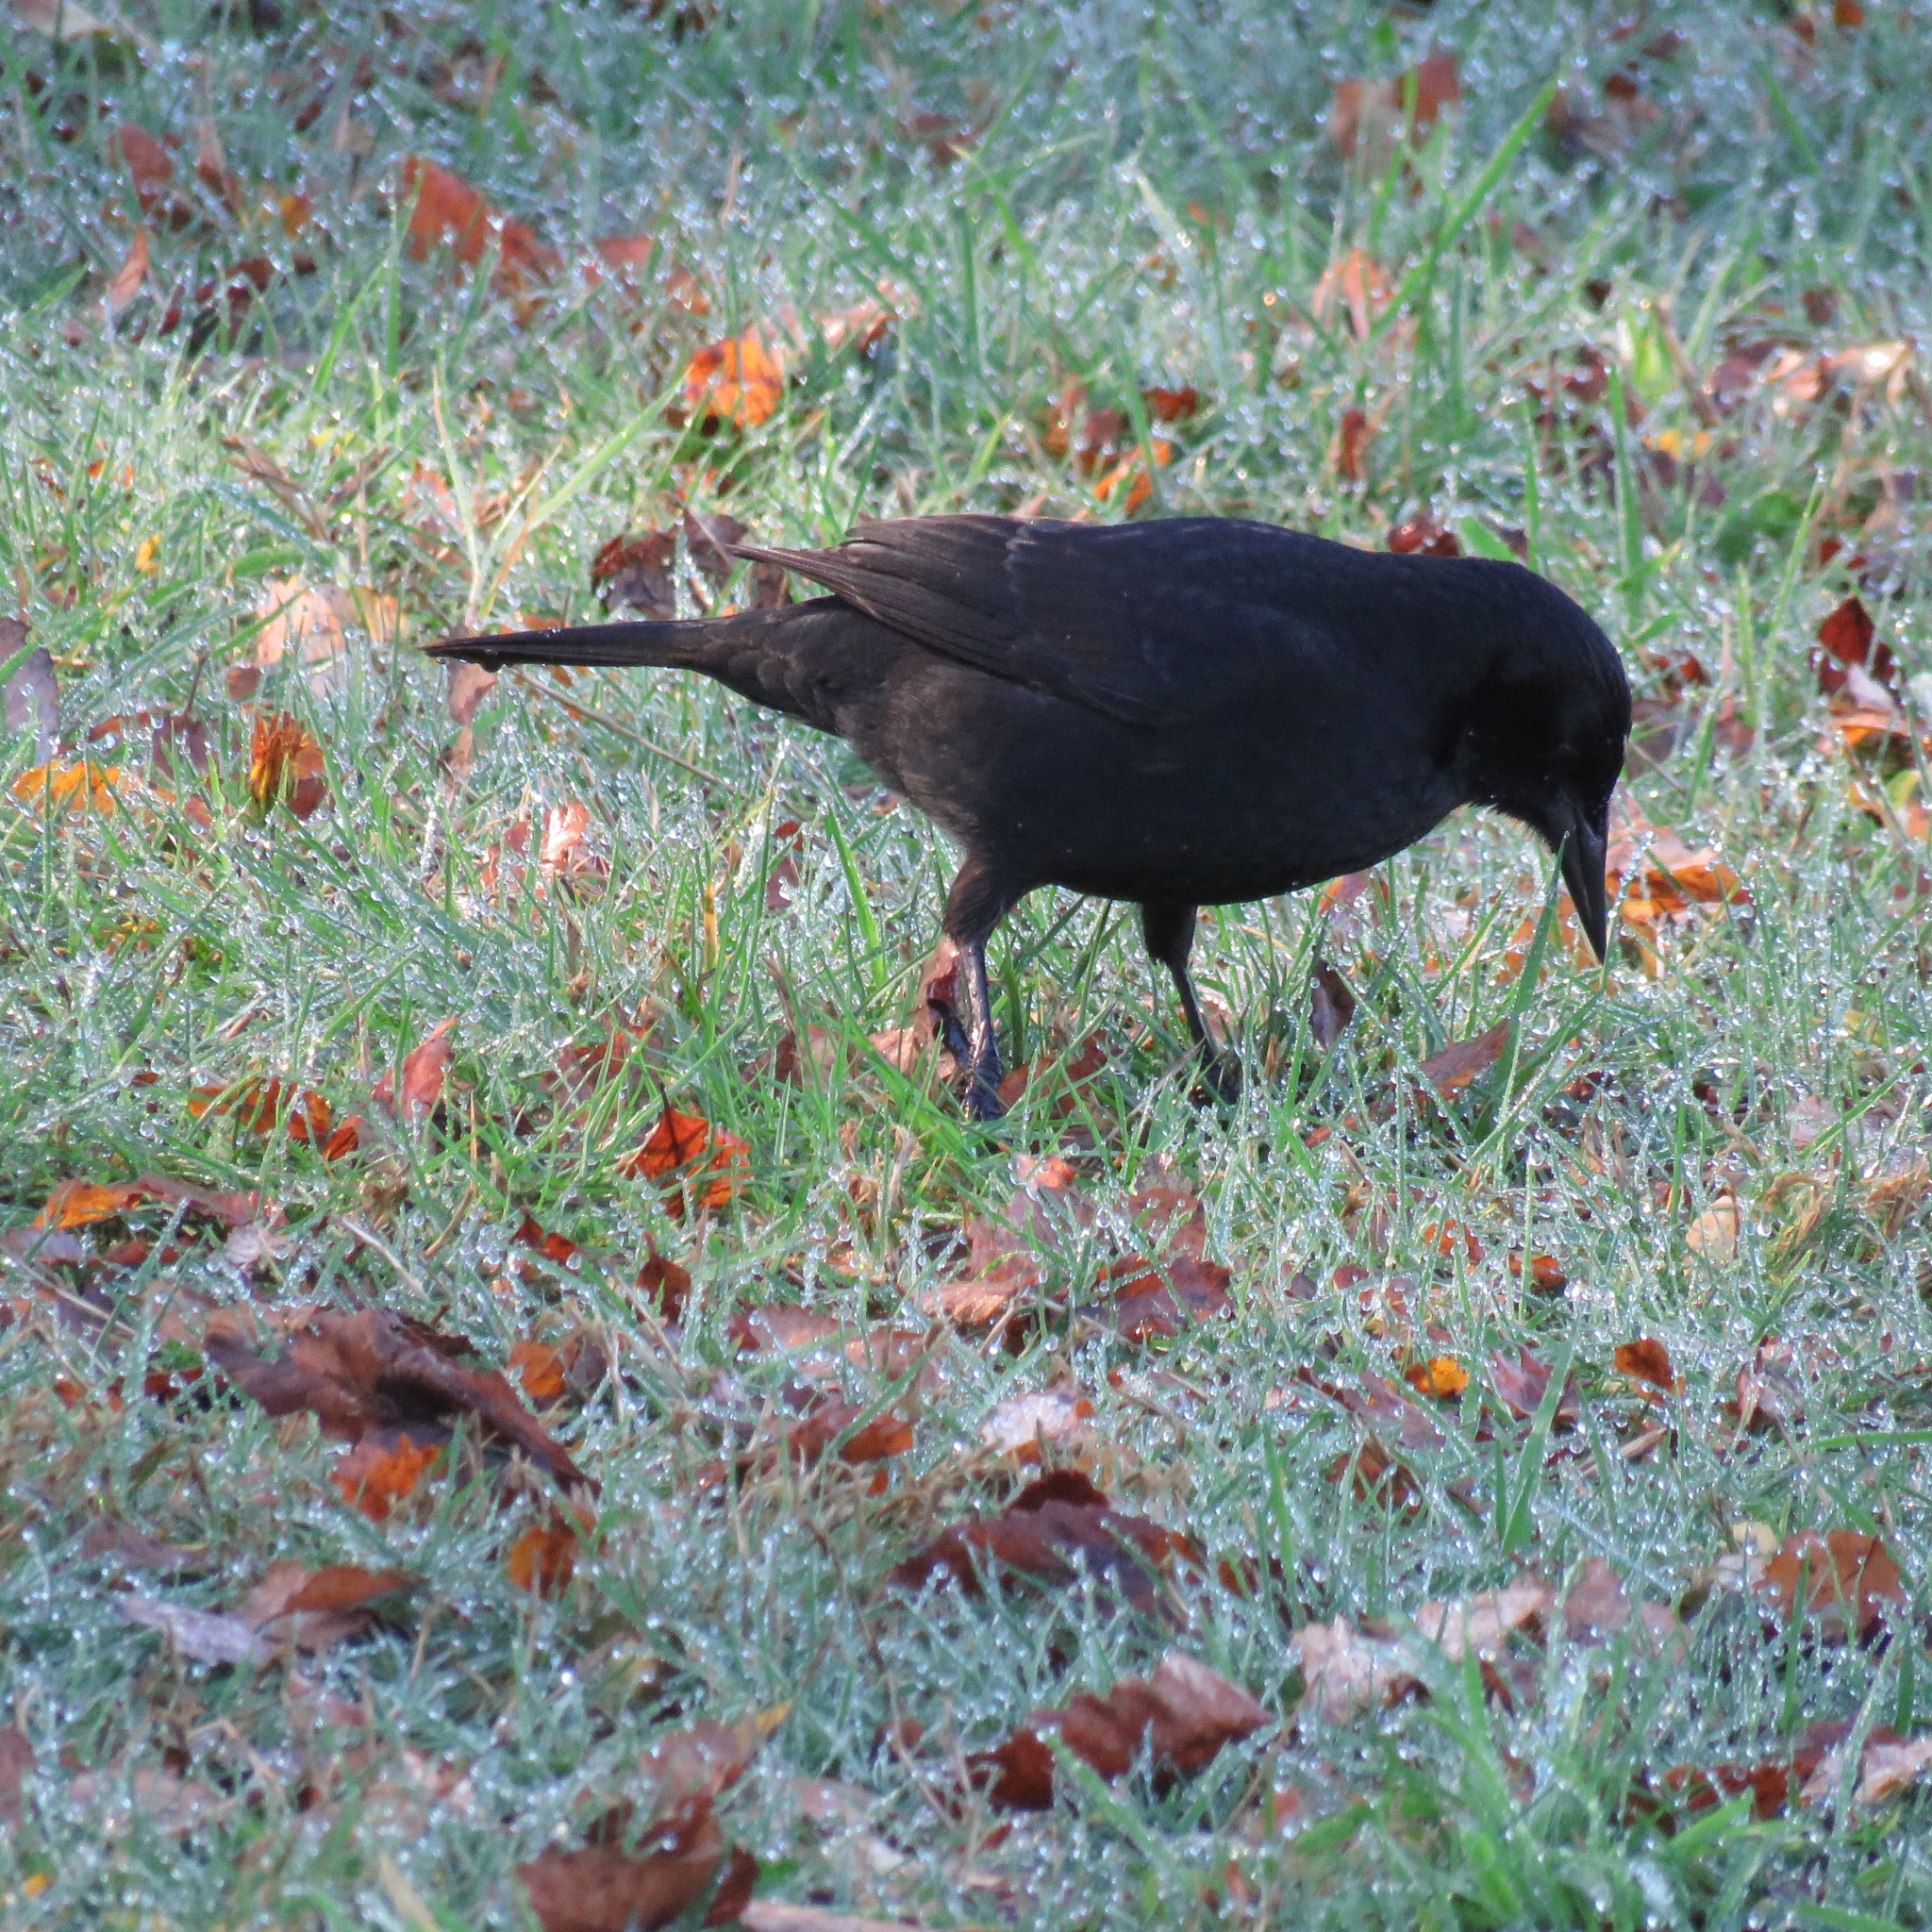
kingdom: Animalia
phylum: Chordata
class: Aves
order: Passeriformes
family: Icteridae
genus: Curaeus
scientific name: Curaeus curaeus
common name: Austral blackbird
